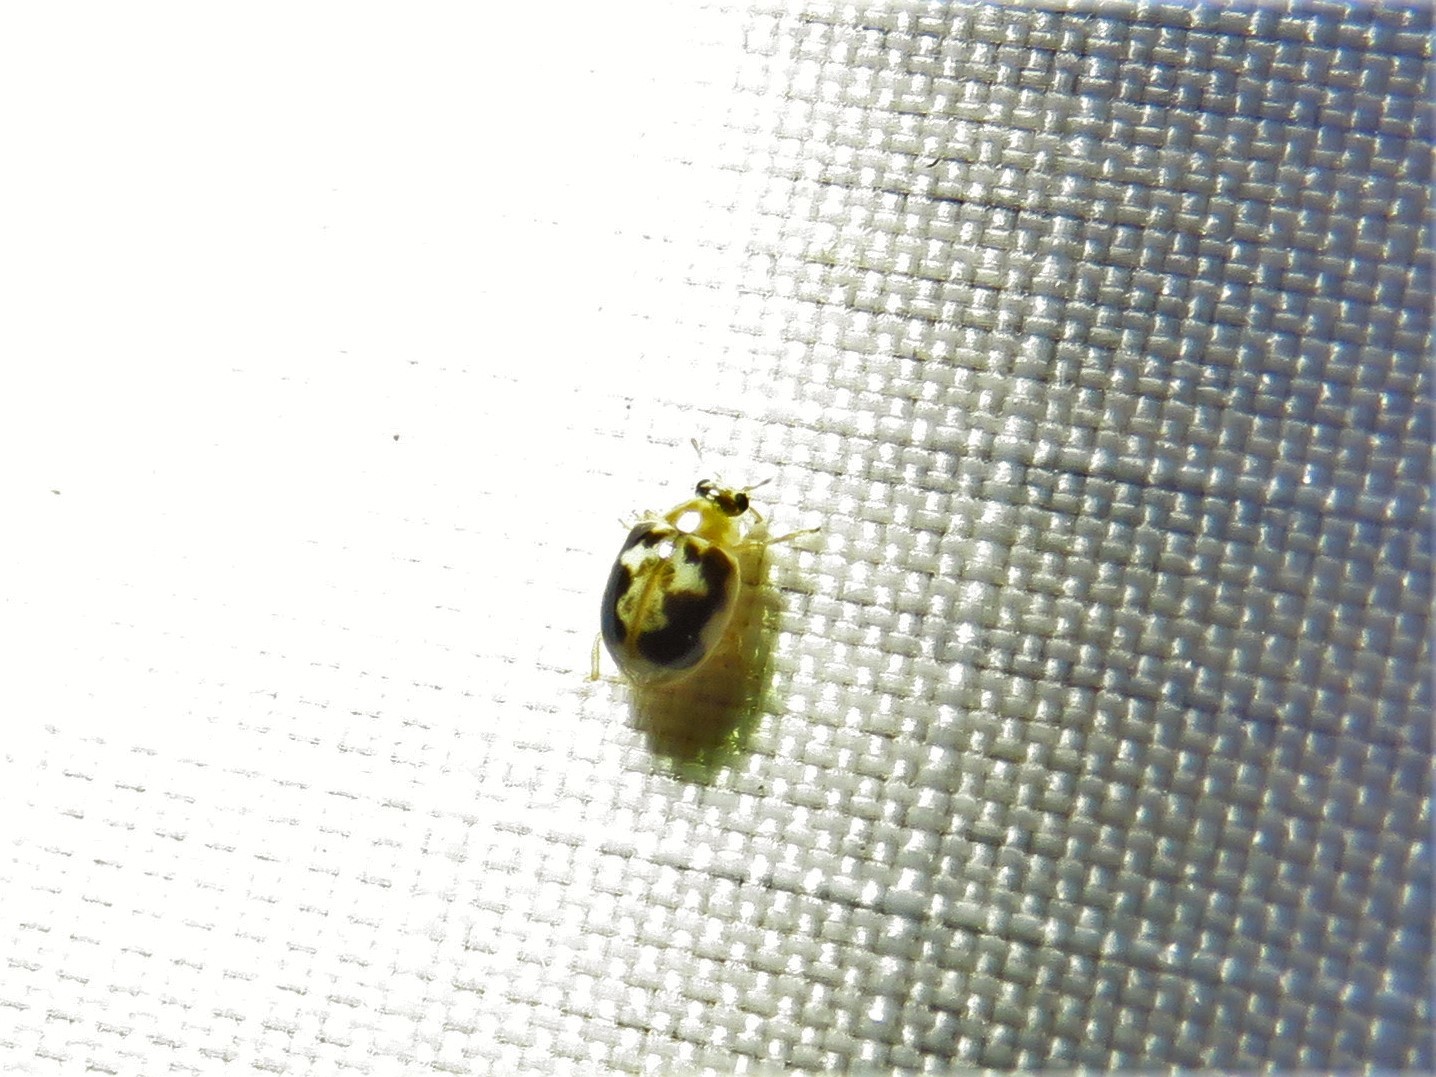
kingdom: Animalia
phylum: Arthropoda
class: Insecta
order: Coleoptera
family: Coccinellidae
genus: Psyllobora
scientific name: Psyllobora renifer
